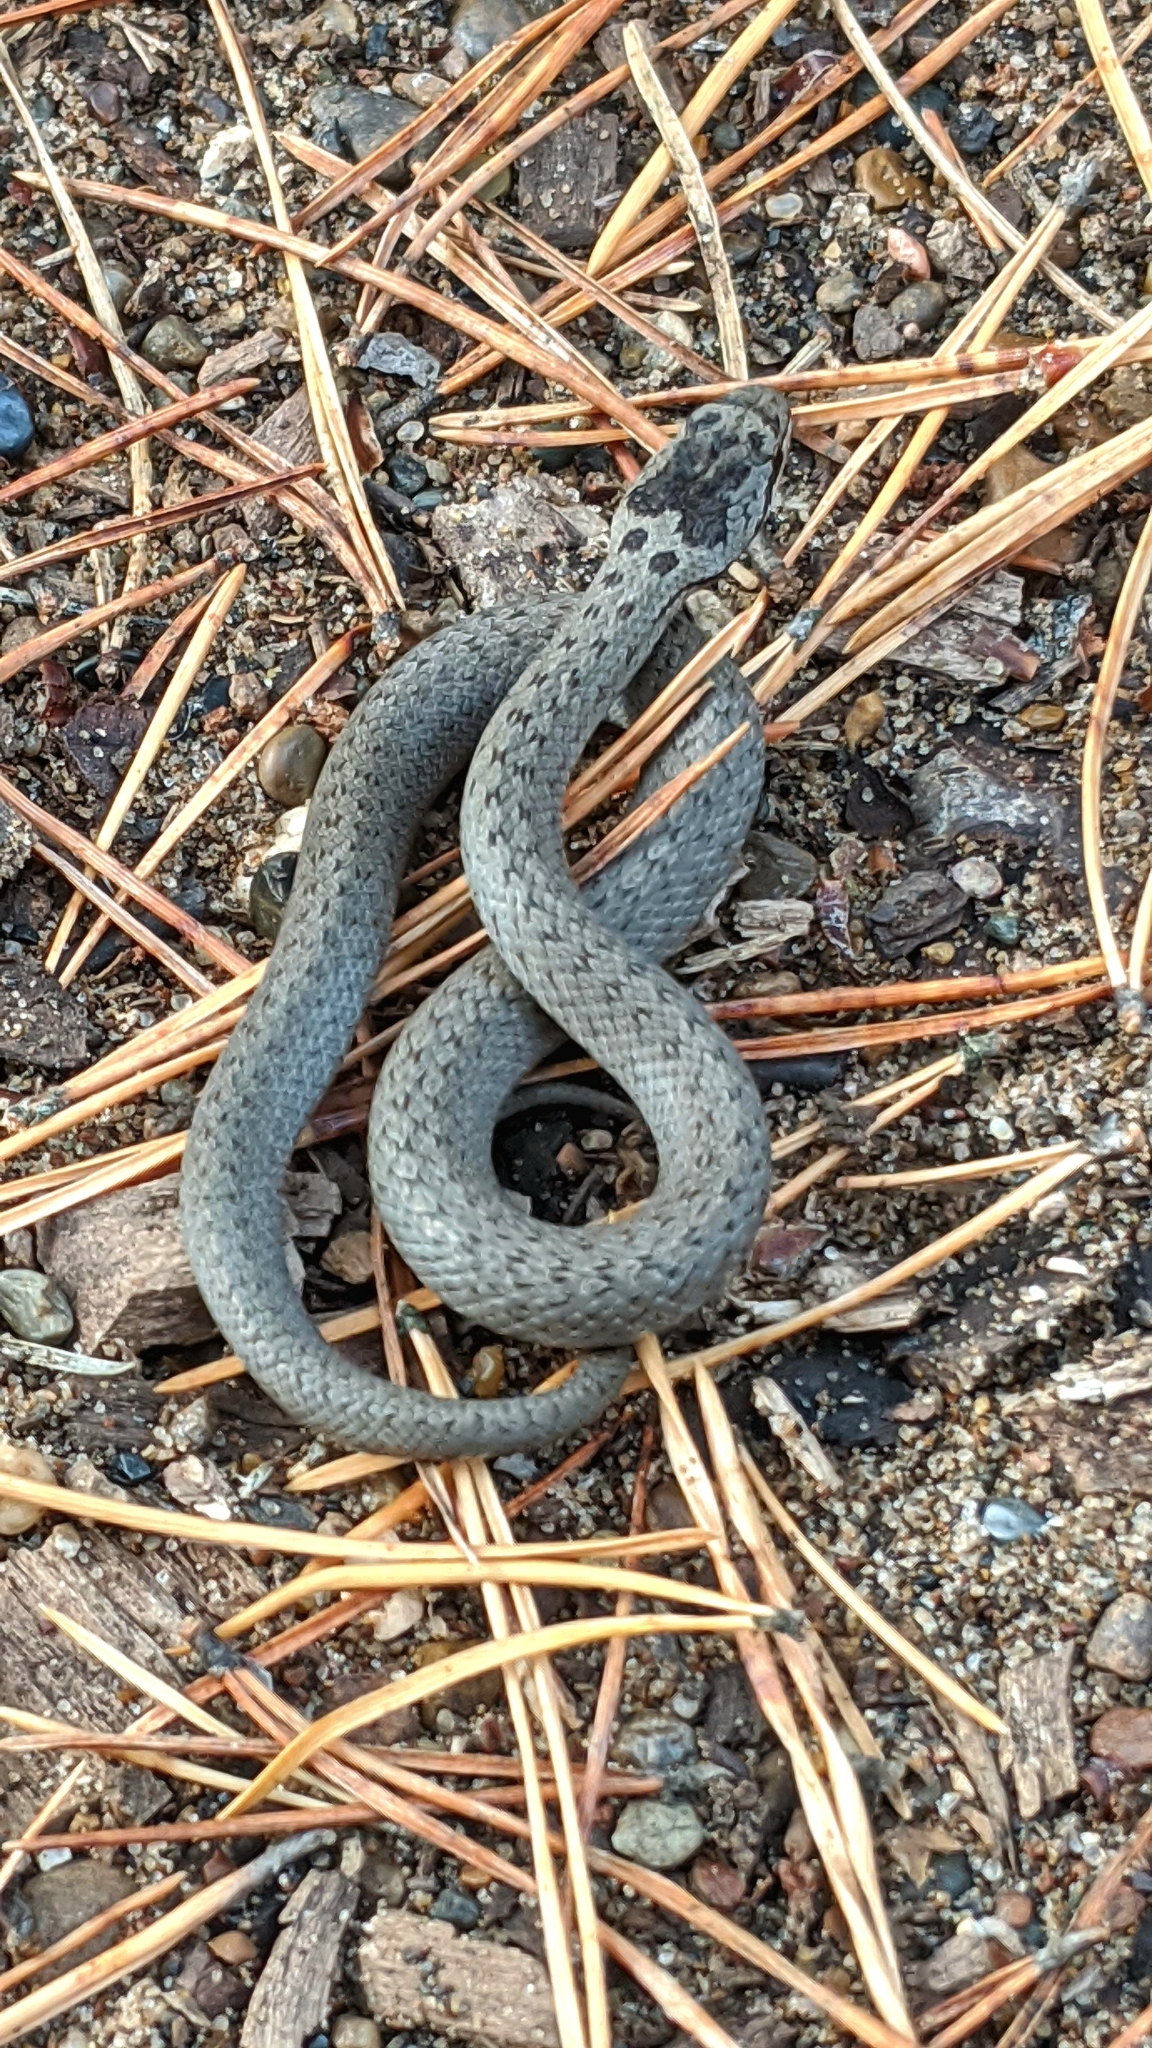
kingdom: Animalia
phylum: Chordata
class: Squamata
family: Colubridae
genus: Coronella
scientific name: Coronella austriaca
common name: Smooth snake
